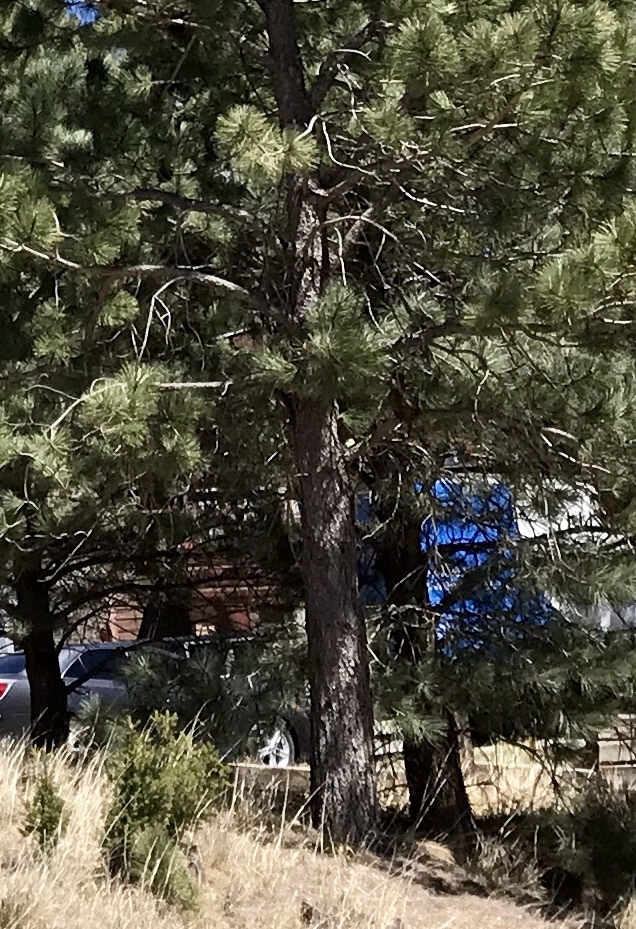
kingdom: Plantae
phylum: Tracheophyta
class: Pinopsida
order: Pinales
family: Pinaceae
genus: Pinus
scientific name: Pinus ponderosa
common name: Western yellow-pine
